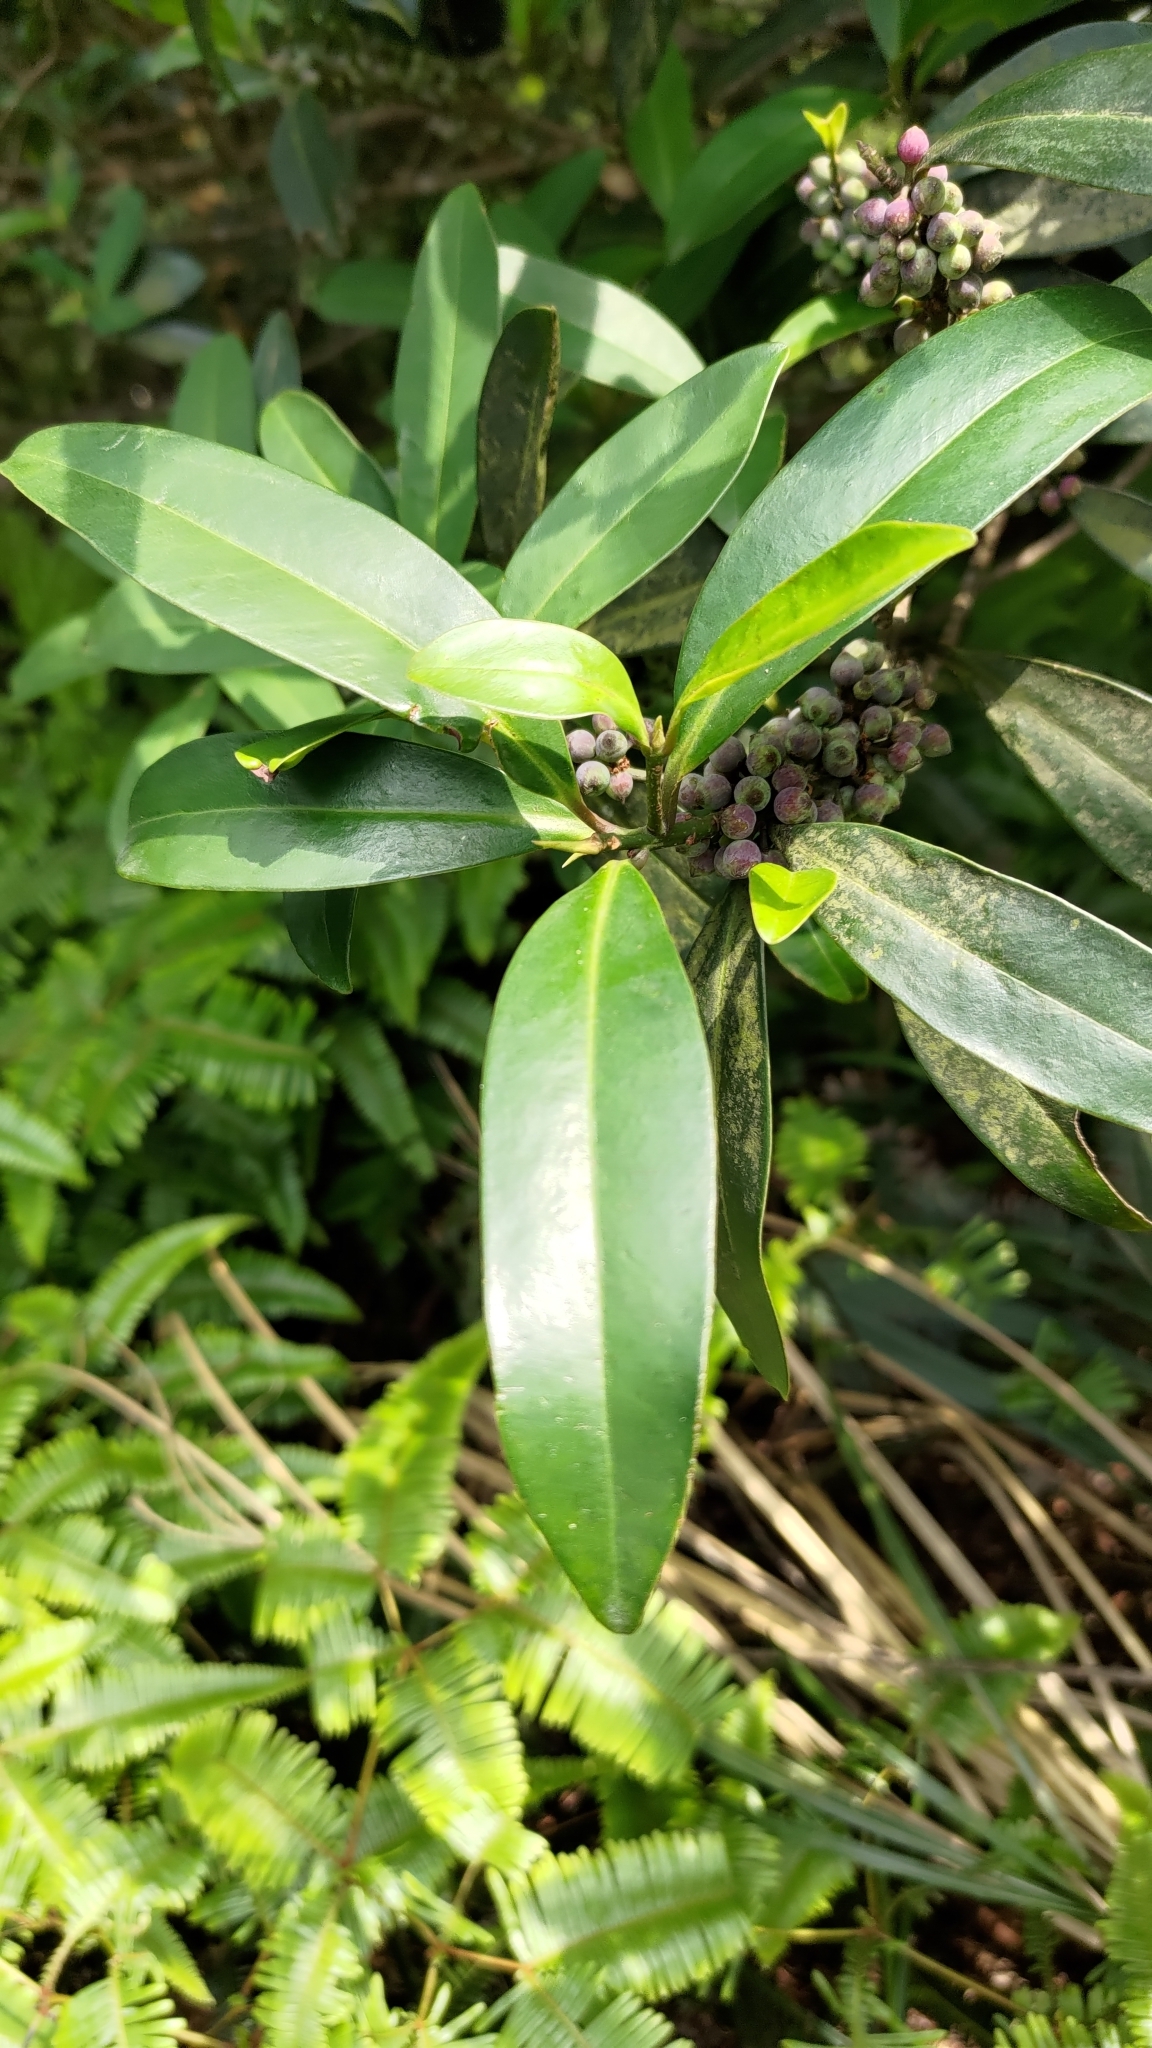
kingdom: Plantae
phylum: Tracheophyta
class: Magnoliopsida
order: Ericales
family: Primulaceae
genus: Myrsine
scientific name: Myrsine seguinii
